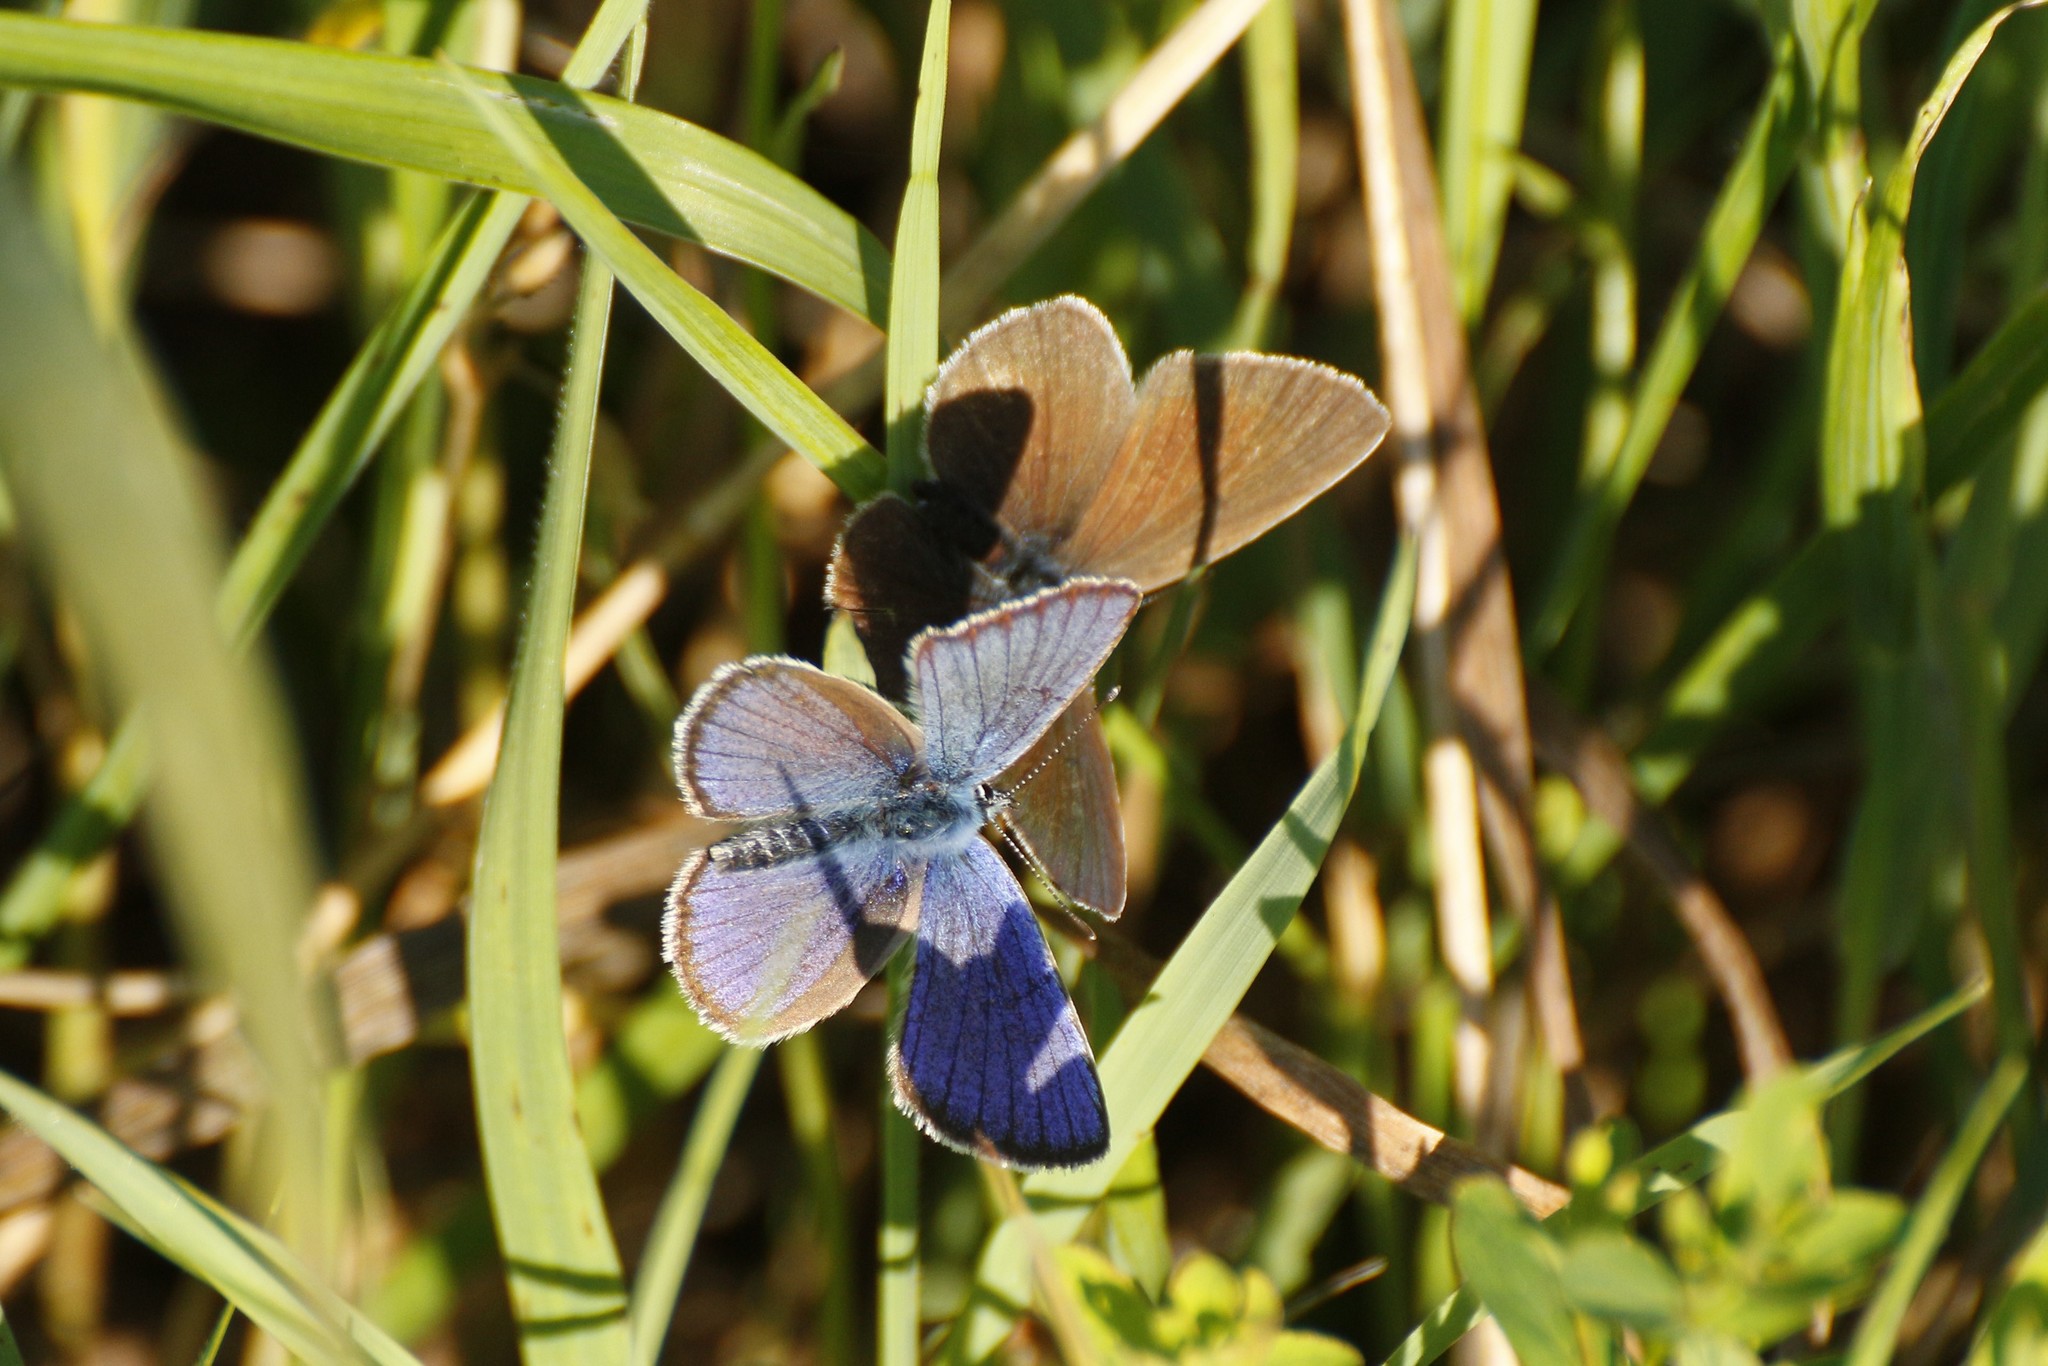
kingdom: Animalia
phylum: Arthropoda
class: Insecta
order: Lepidoptera
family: Lycaenidae
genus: Cyaniris
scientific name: Cyaniris semiargus
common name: Mazarine blue
